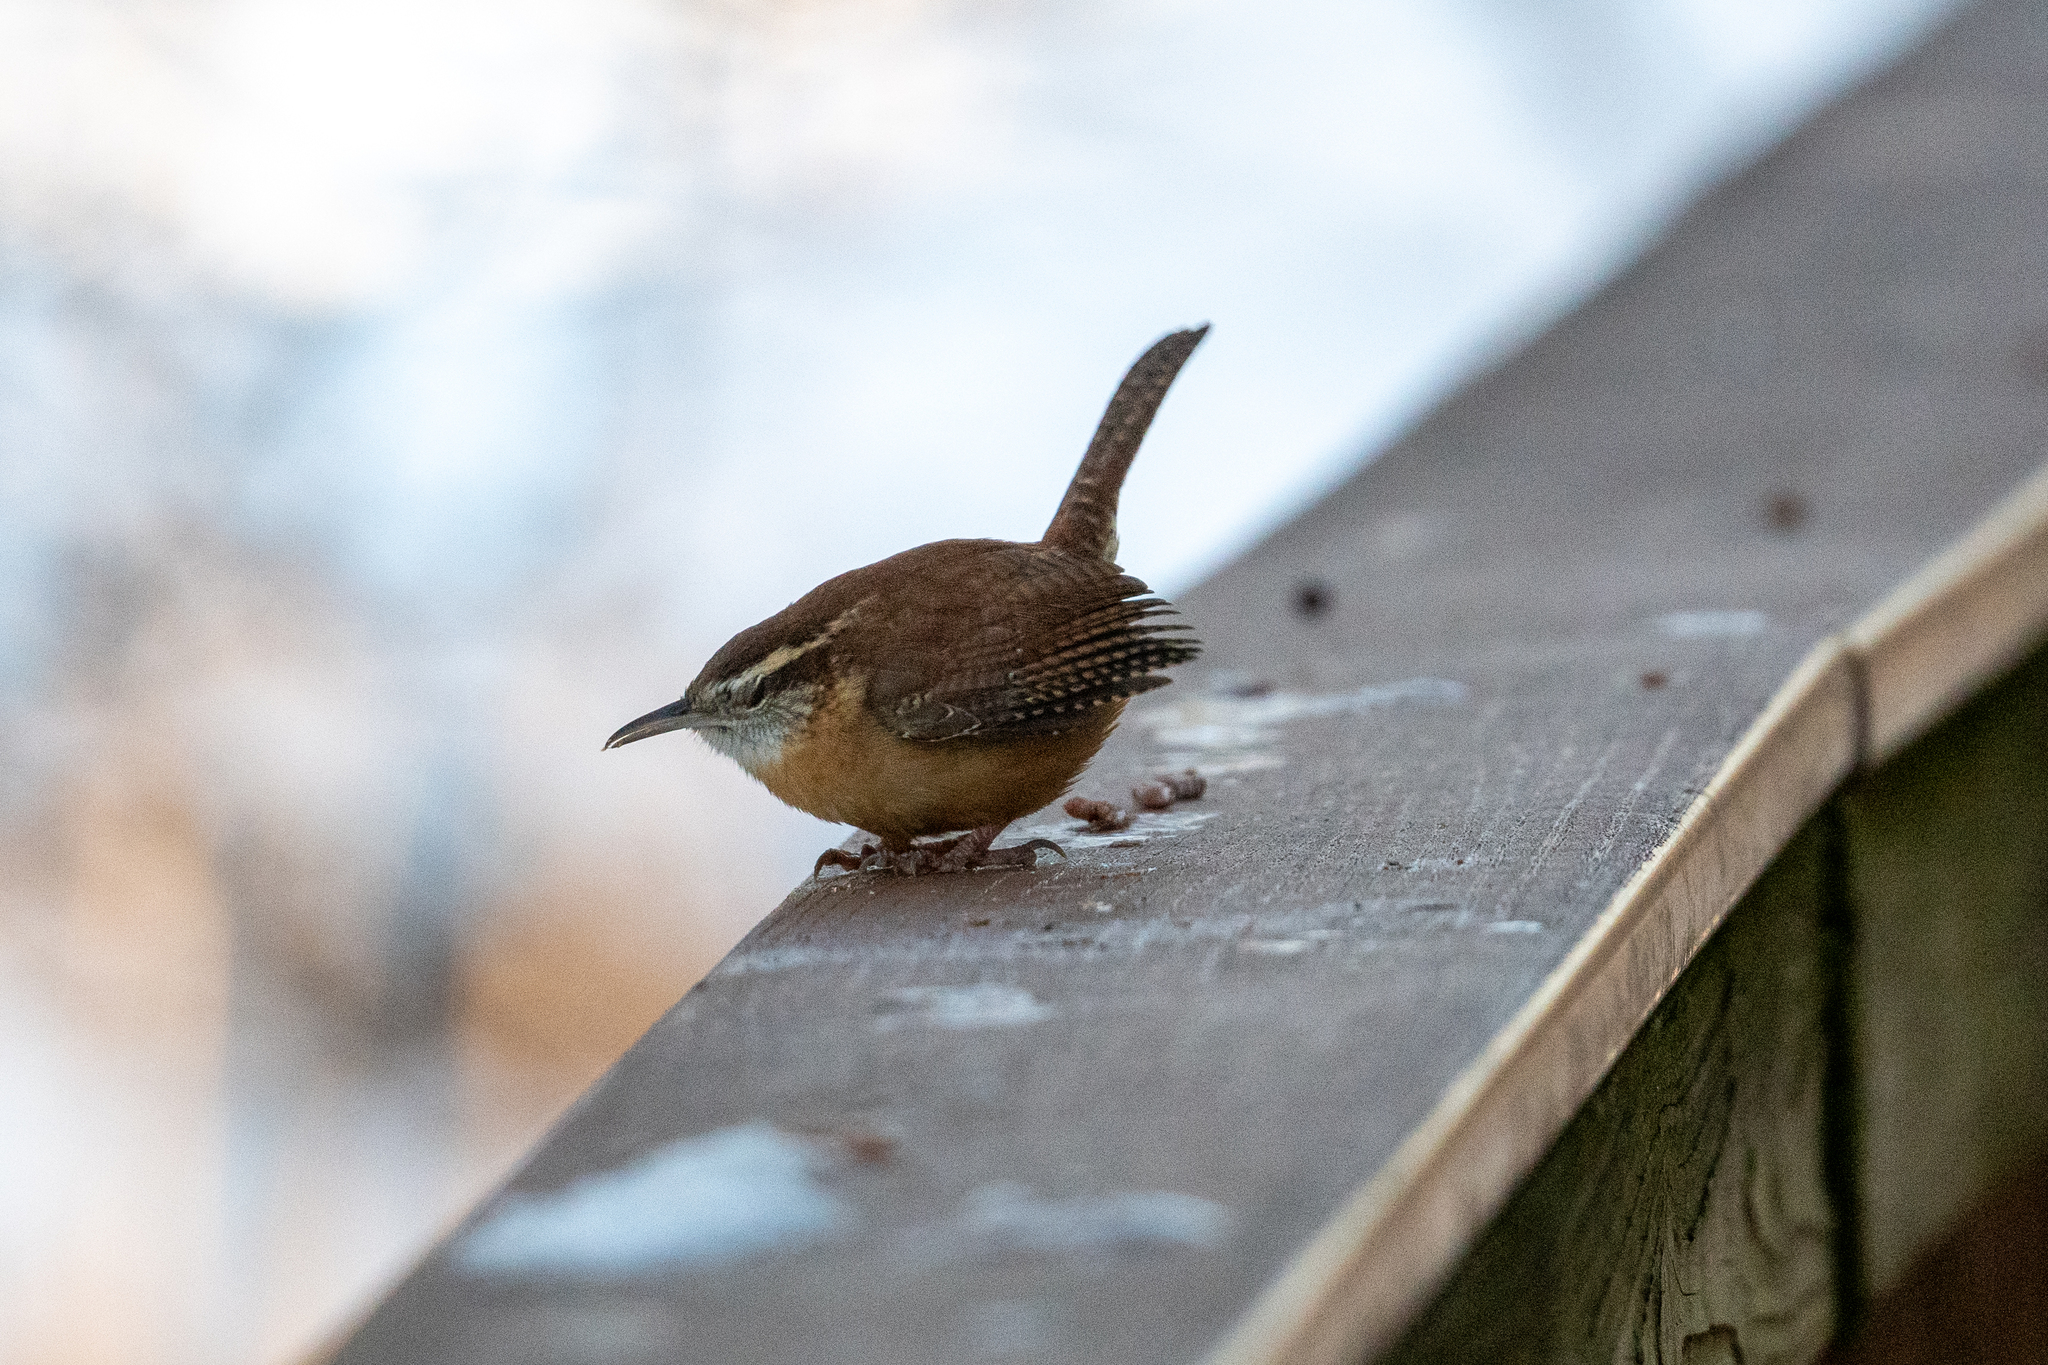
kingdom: Animalia
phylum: Chordata
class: Aves
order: Passeriformes
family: Troglodytidae
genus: Thryothorus
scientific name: Thryothorus ludovicianus
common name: Carolina wren
